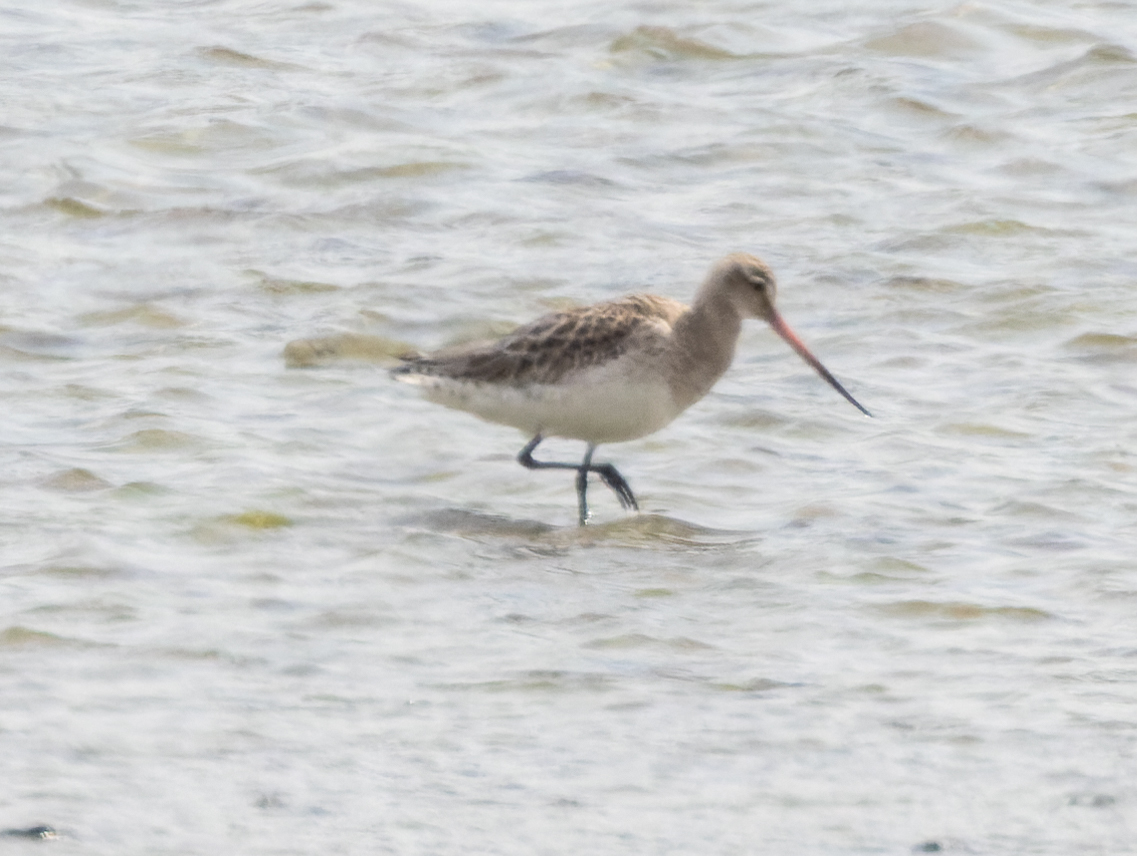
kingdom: Animalia
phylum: Chordata
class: Aves
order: Charadriiformes
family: Scolopacidae
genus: Limosa
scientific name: Limosa lapponica
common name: Bar-tailed godwit
